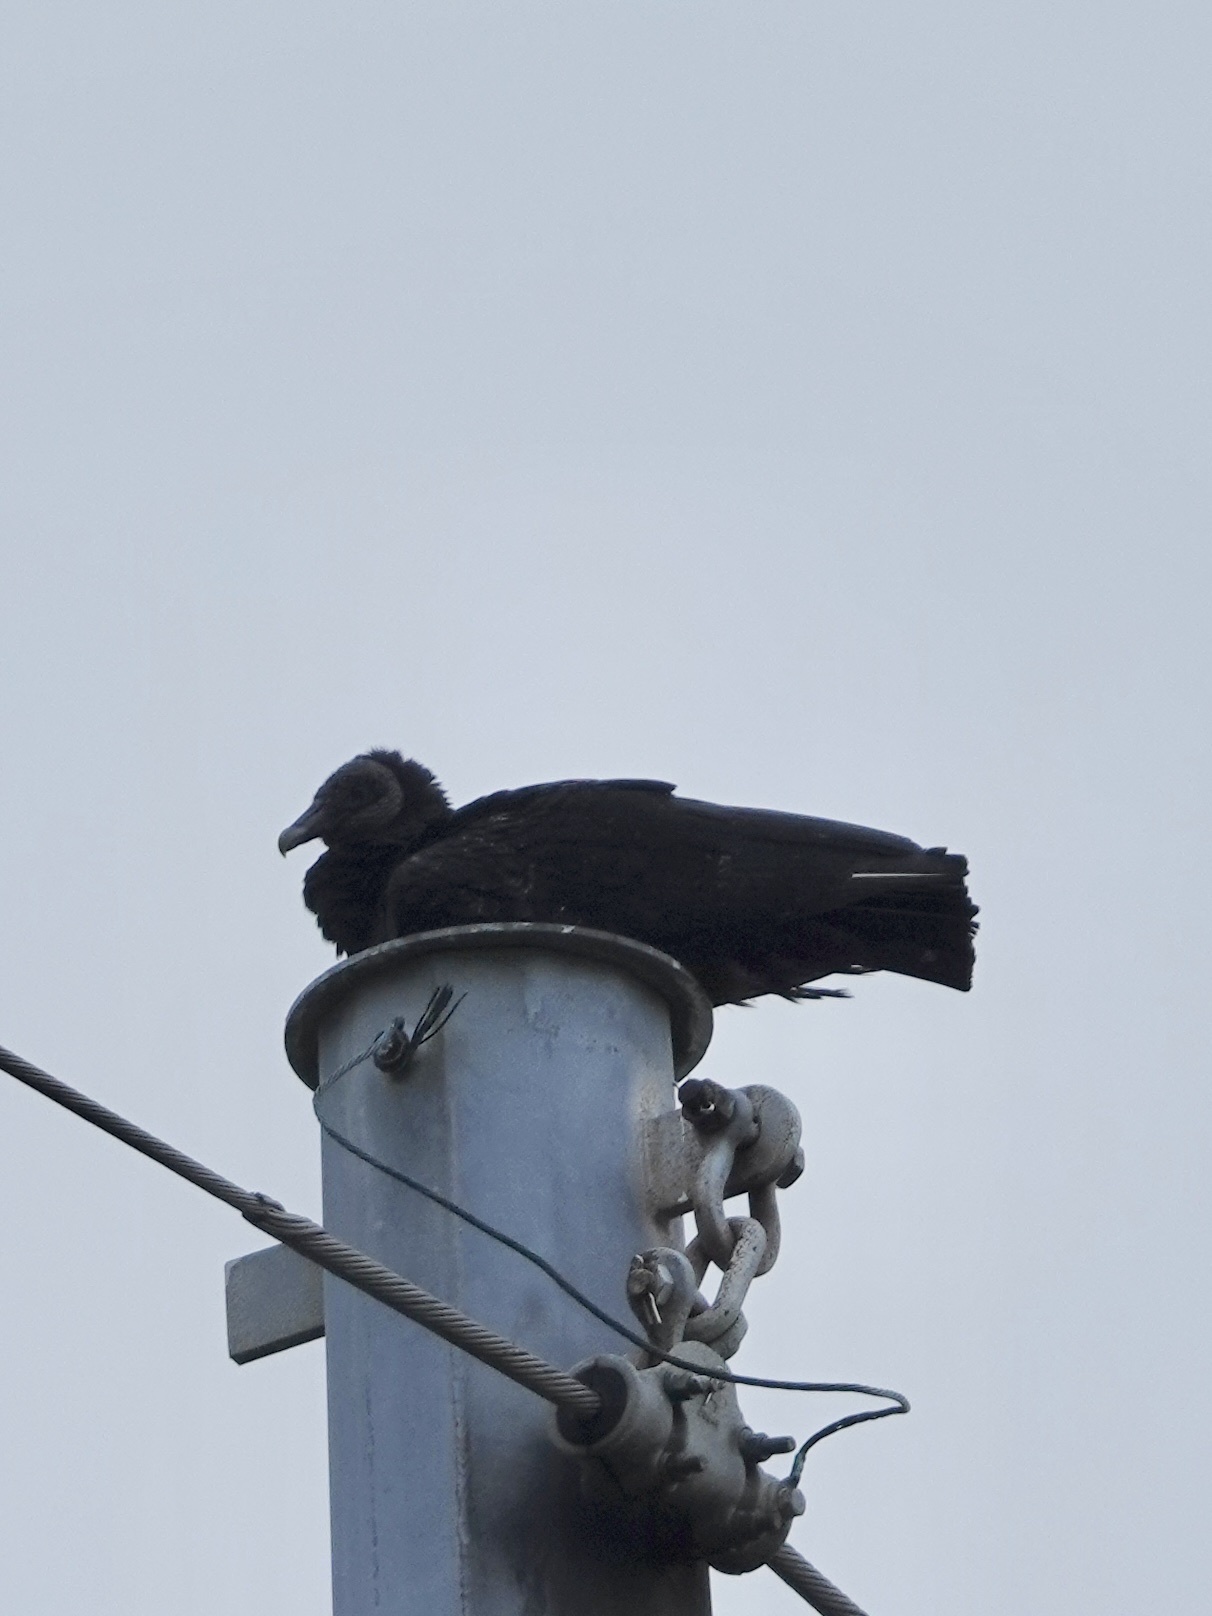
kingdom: Animalia
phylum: Chordata
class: Aves
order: Accipitriformes
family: Cathartidae
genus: Coragyps
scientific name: Coragyps atratus
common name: Black vulture
